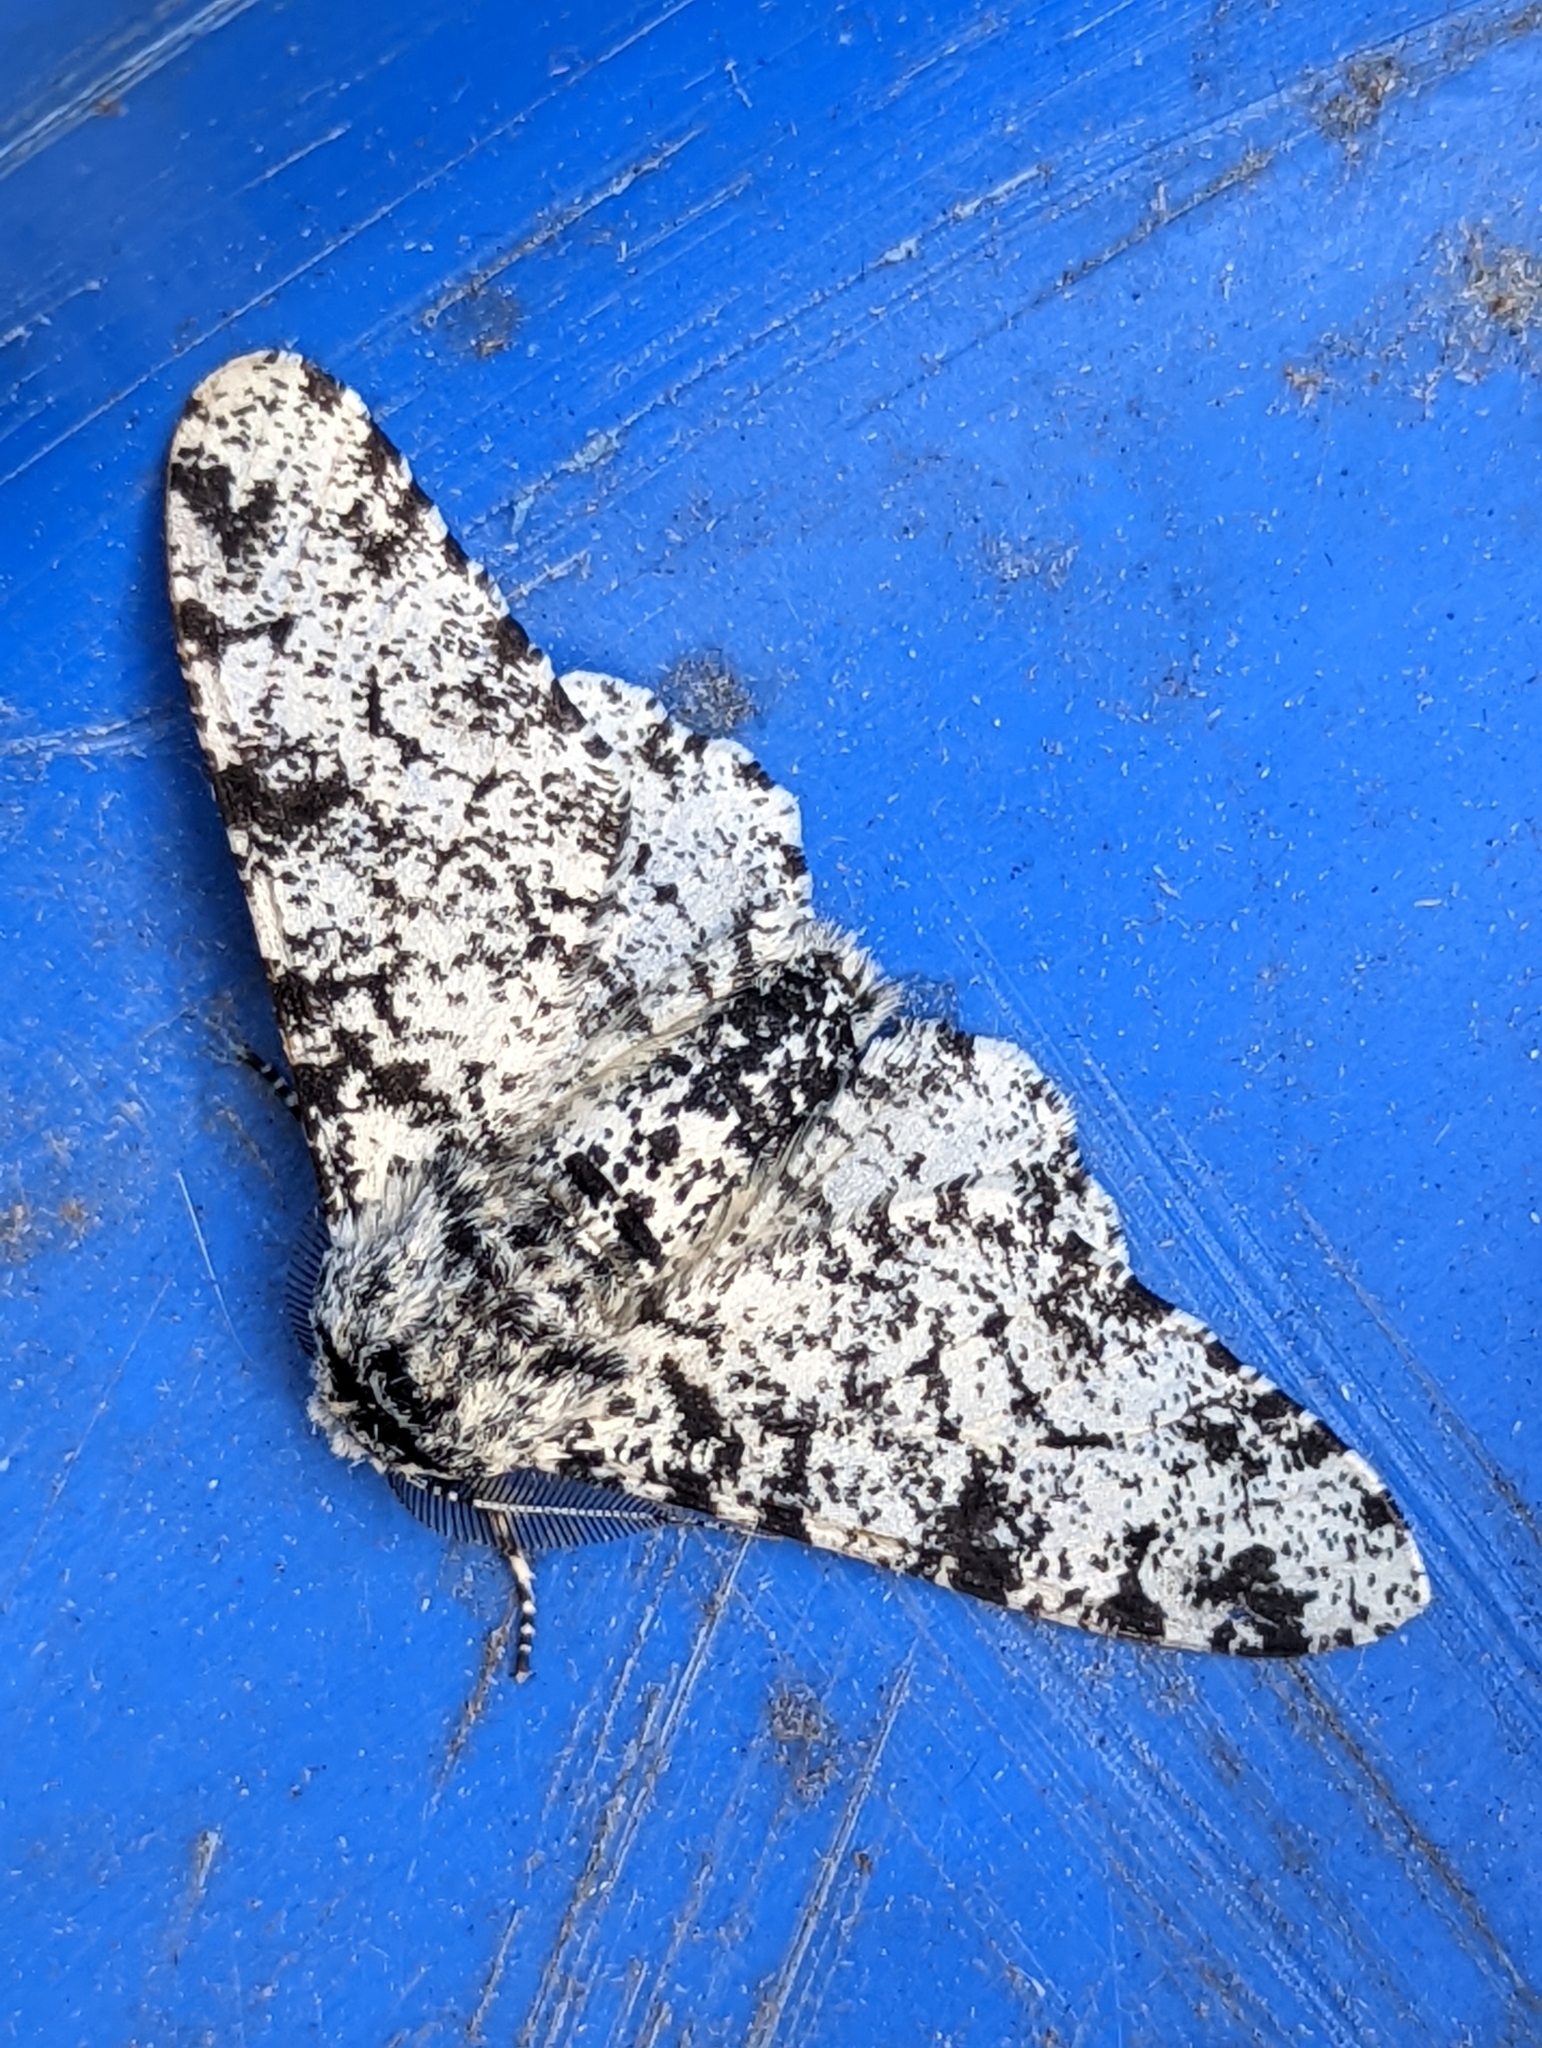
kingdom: Animalia
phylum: Arthropoda
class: Insecta
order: Lepidoptera
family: Geometridae
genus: Biston
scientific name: Biston betularia
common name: Peppered moth
